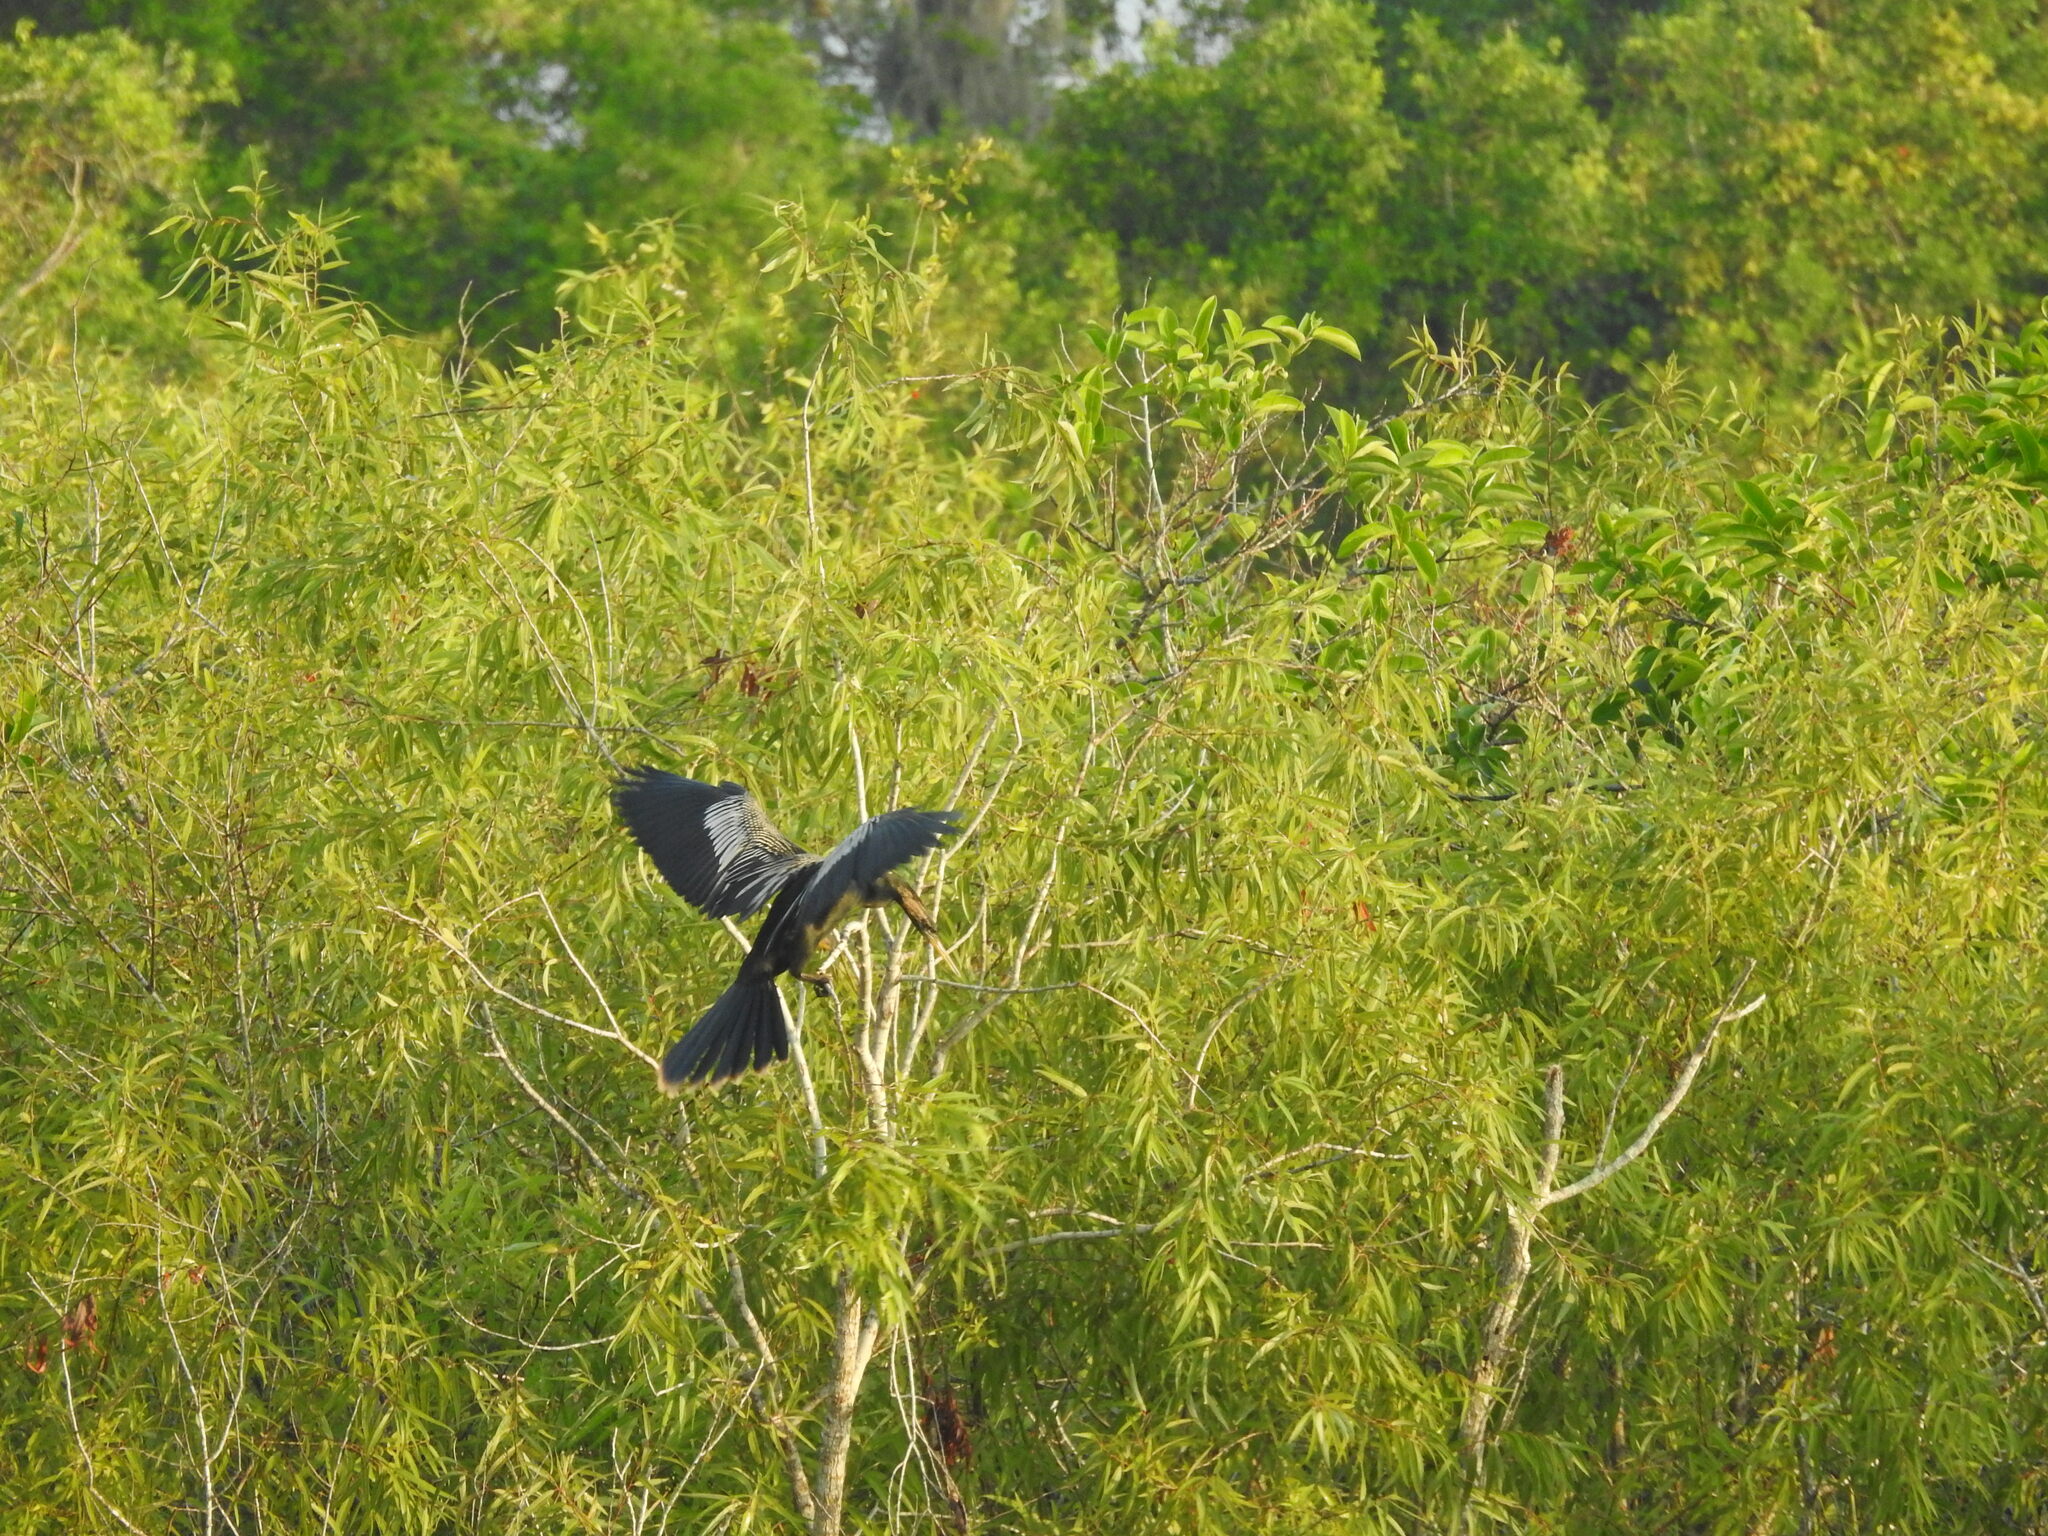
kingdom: Animalia
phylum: Chordata
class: Aves
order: Suliformes
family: Anhingidae
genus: Anhinga
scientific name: Anhinga anhinga
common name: Anhinga
